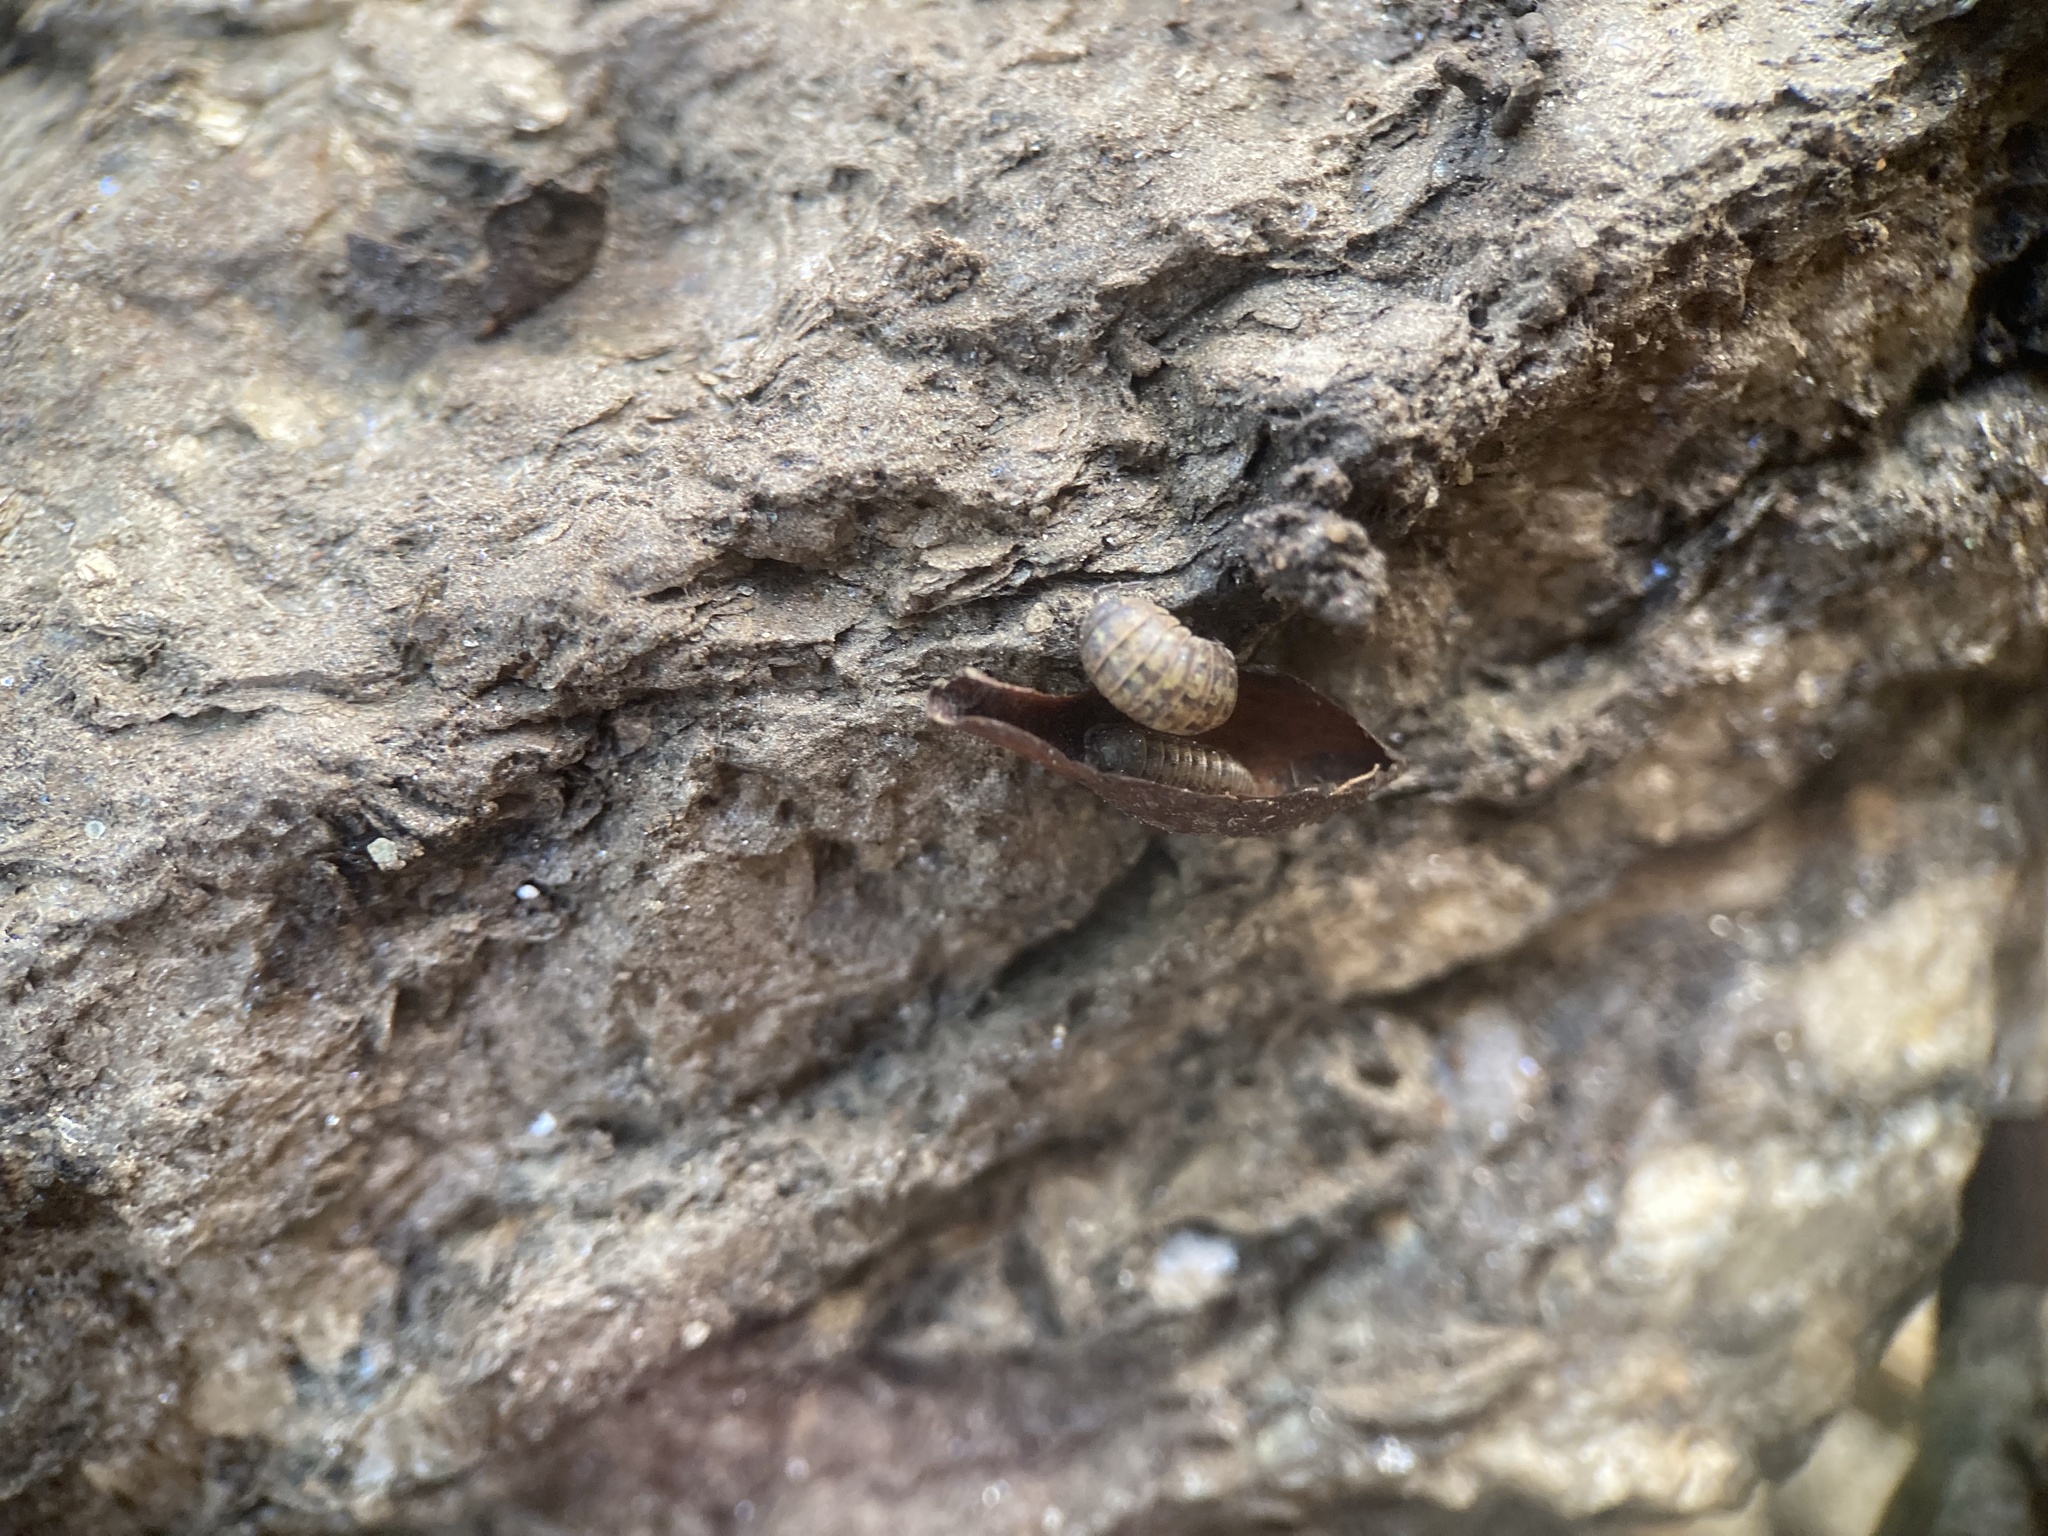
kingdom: Animalia
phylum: Arthropoda
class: Malacostraca
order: Isopoda
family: Armadillidiidae
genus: Armadillidium
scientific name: Armadillidium vulgare
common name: Common pill woodlouse
